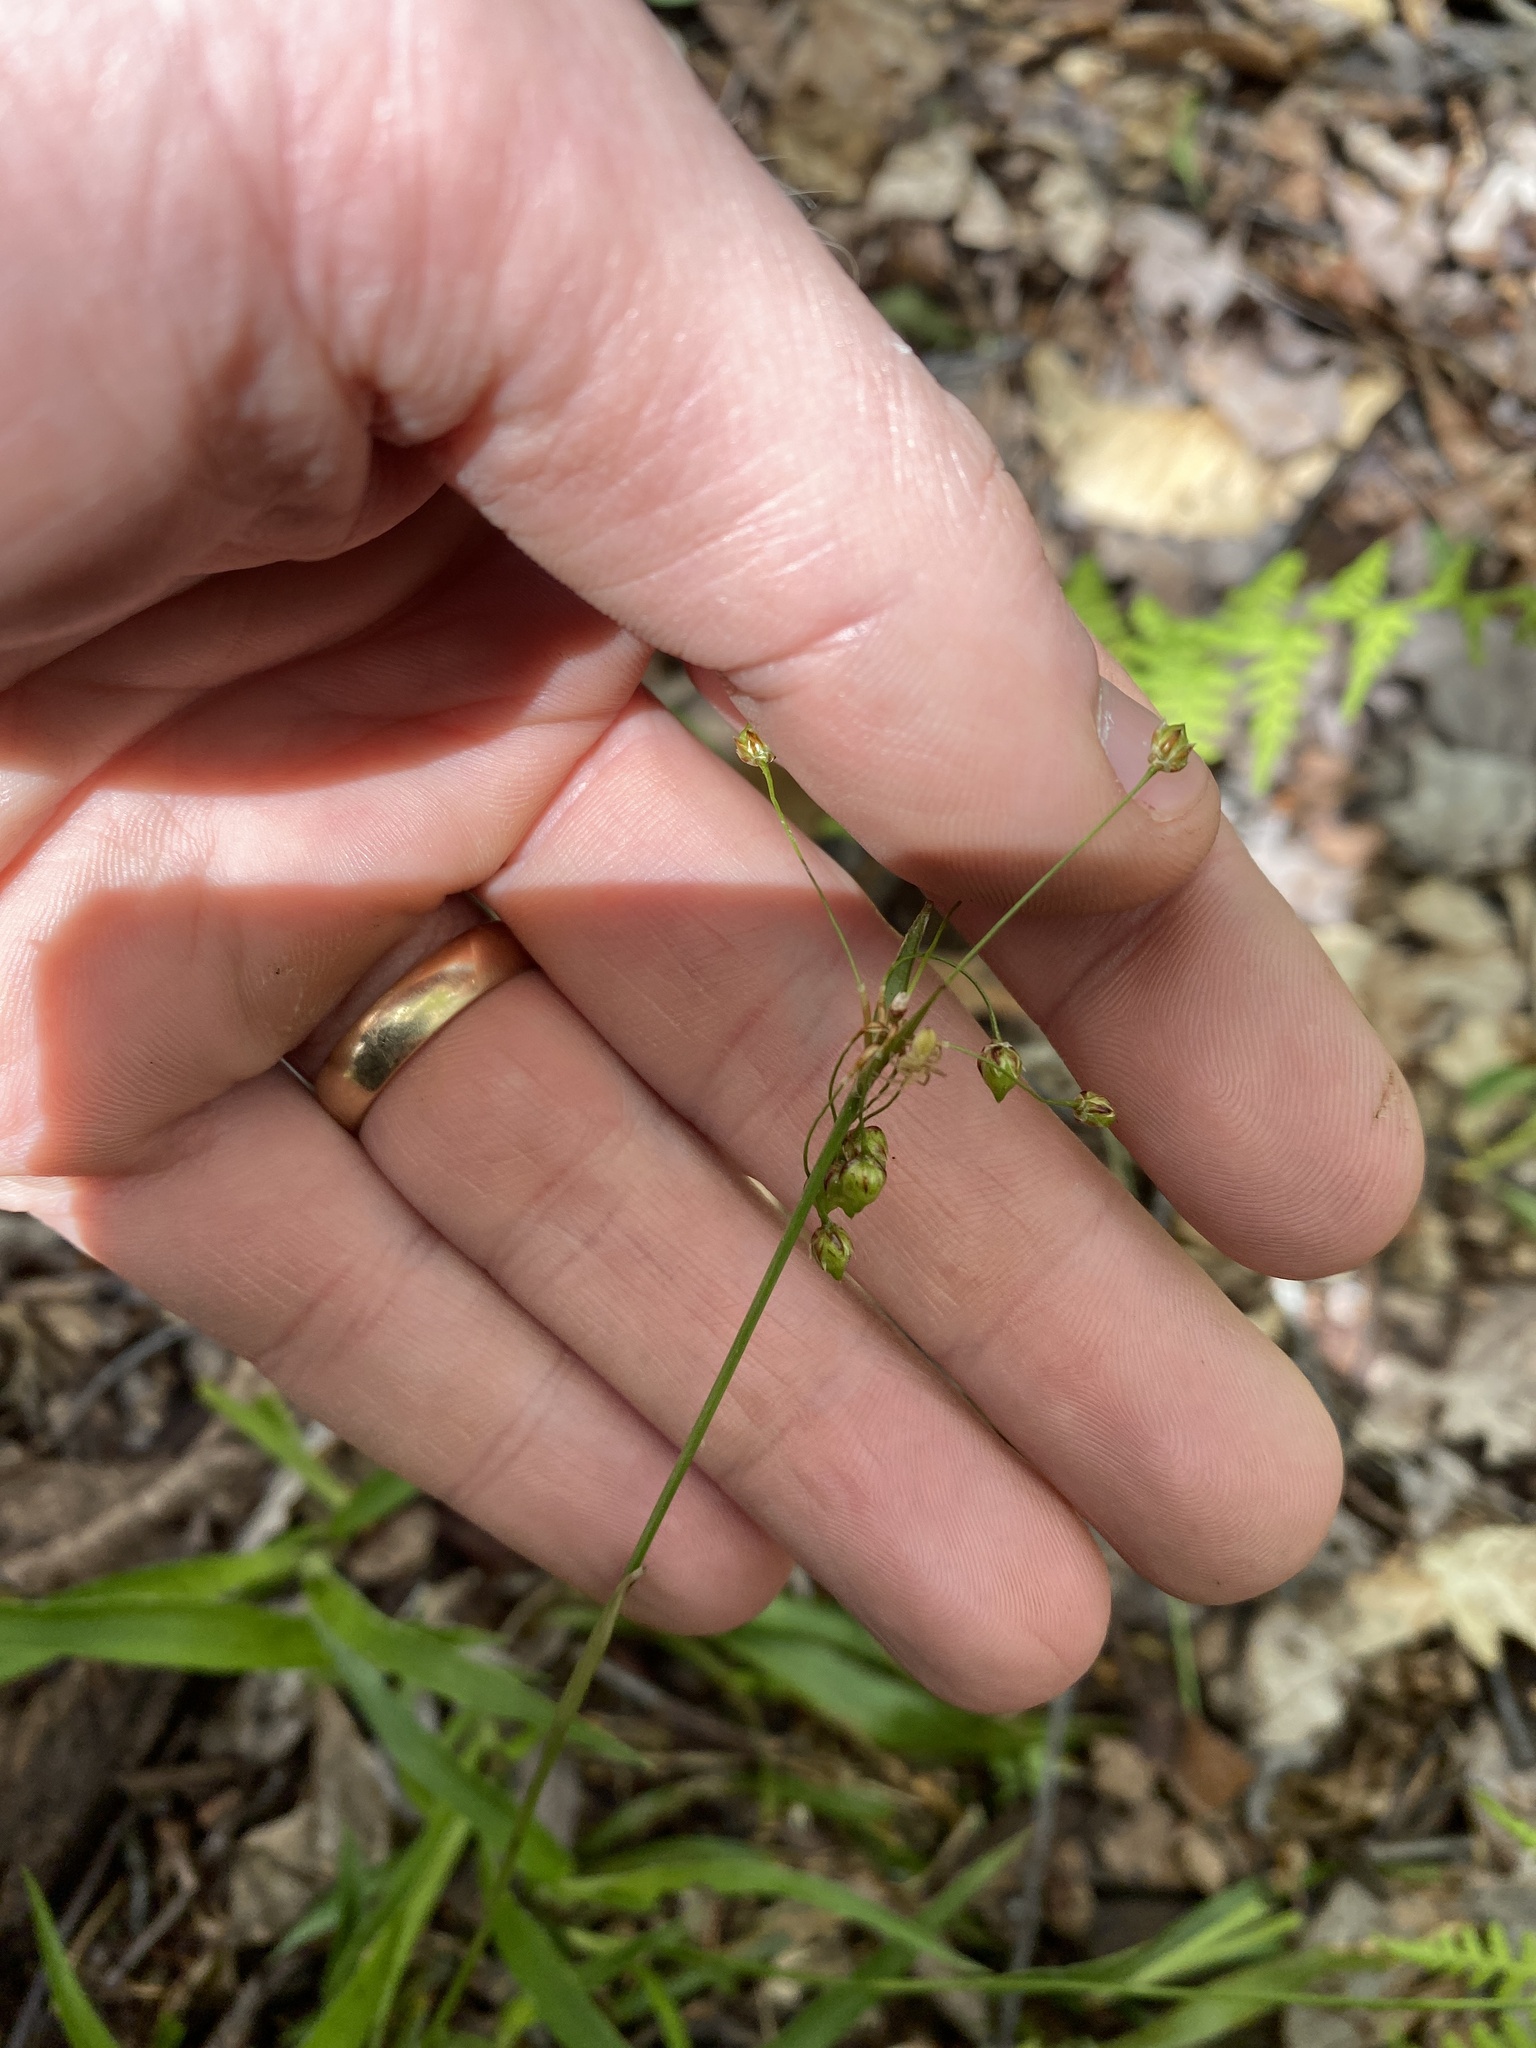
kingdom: Plantae
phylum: Tracheophyta
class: Liliopsida
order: Poales
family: Juncaceae
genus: Luzula
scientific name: Luzula acuminata
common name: Hairy woodrush
